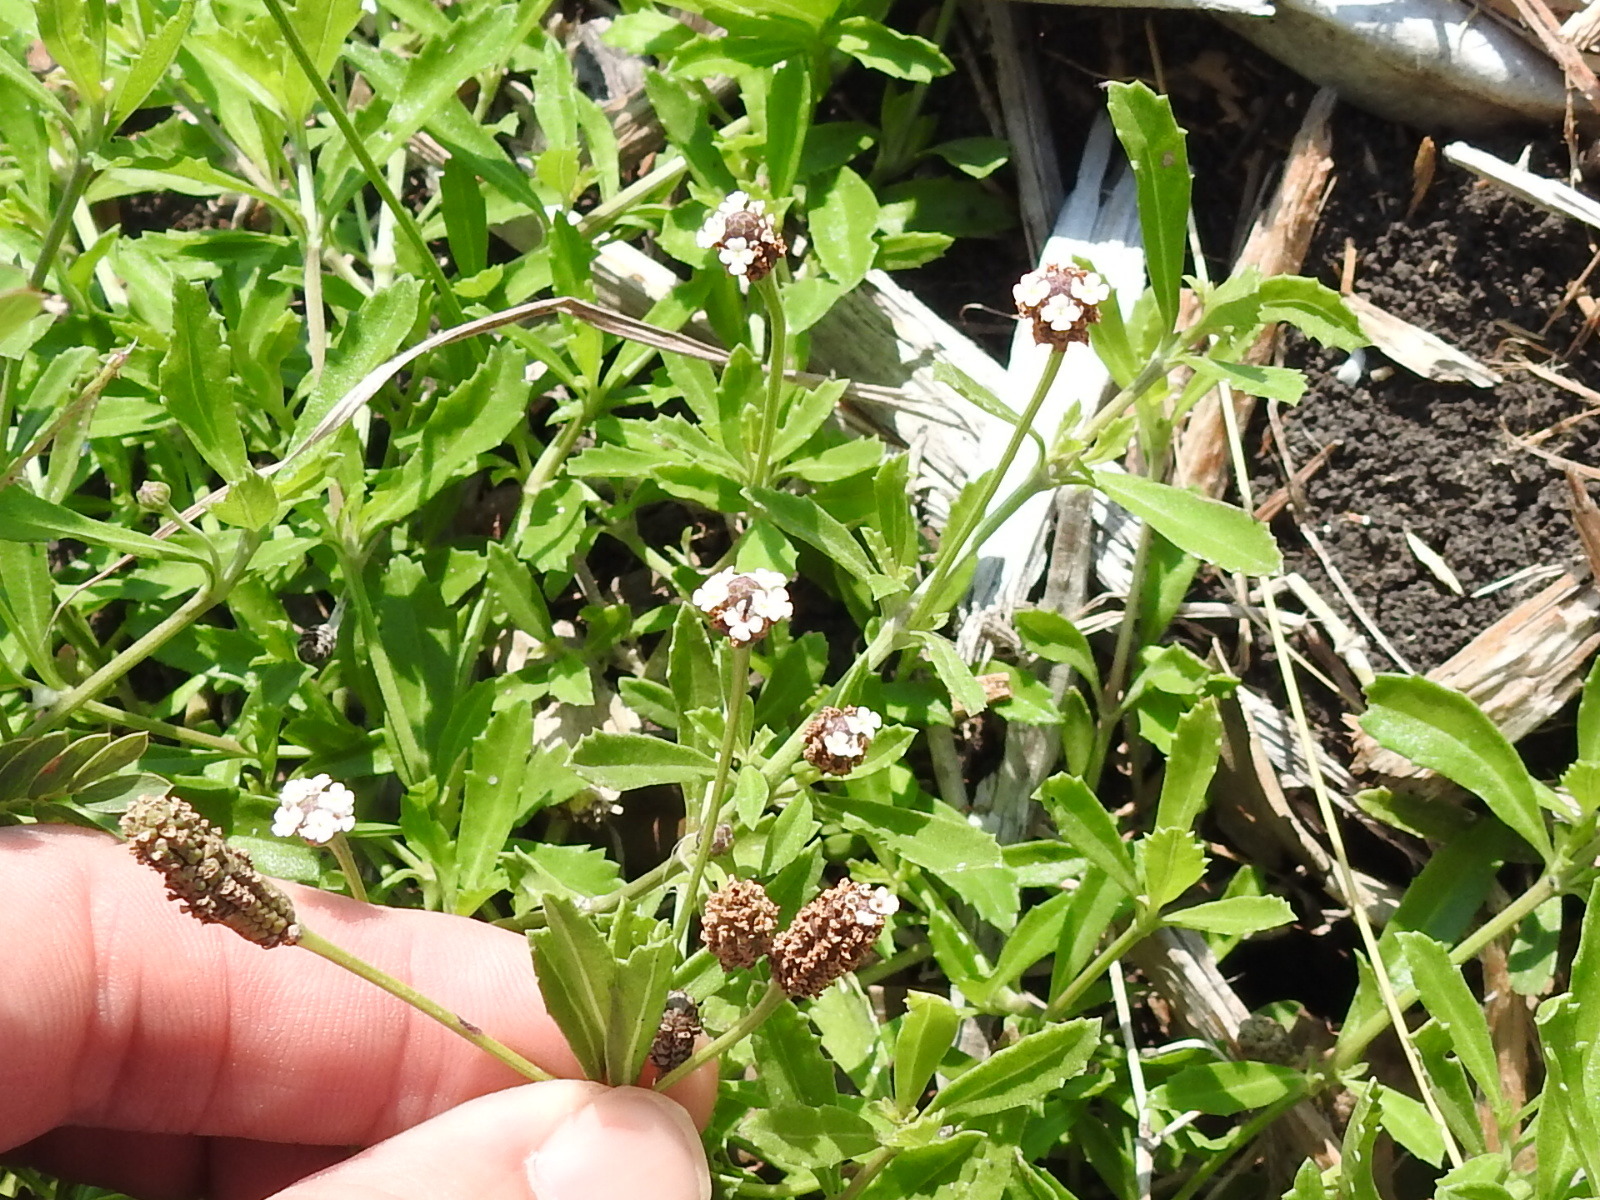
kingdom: Plantae
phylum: Tracheophyta
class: Magnoliopsida
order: Lamiales
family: Verbenaceae
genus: Phyla
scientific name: Phyla nodiflora
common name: Frogfruit
